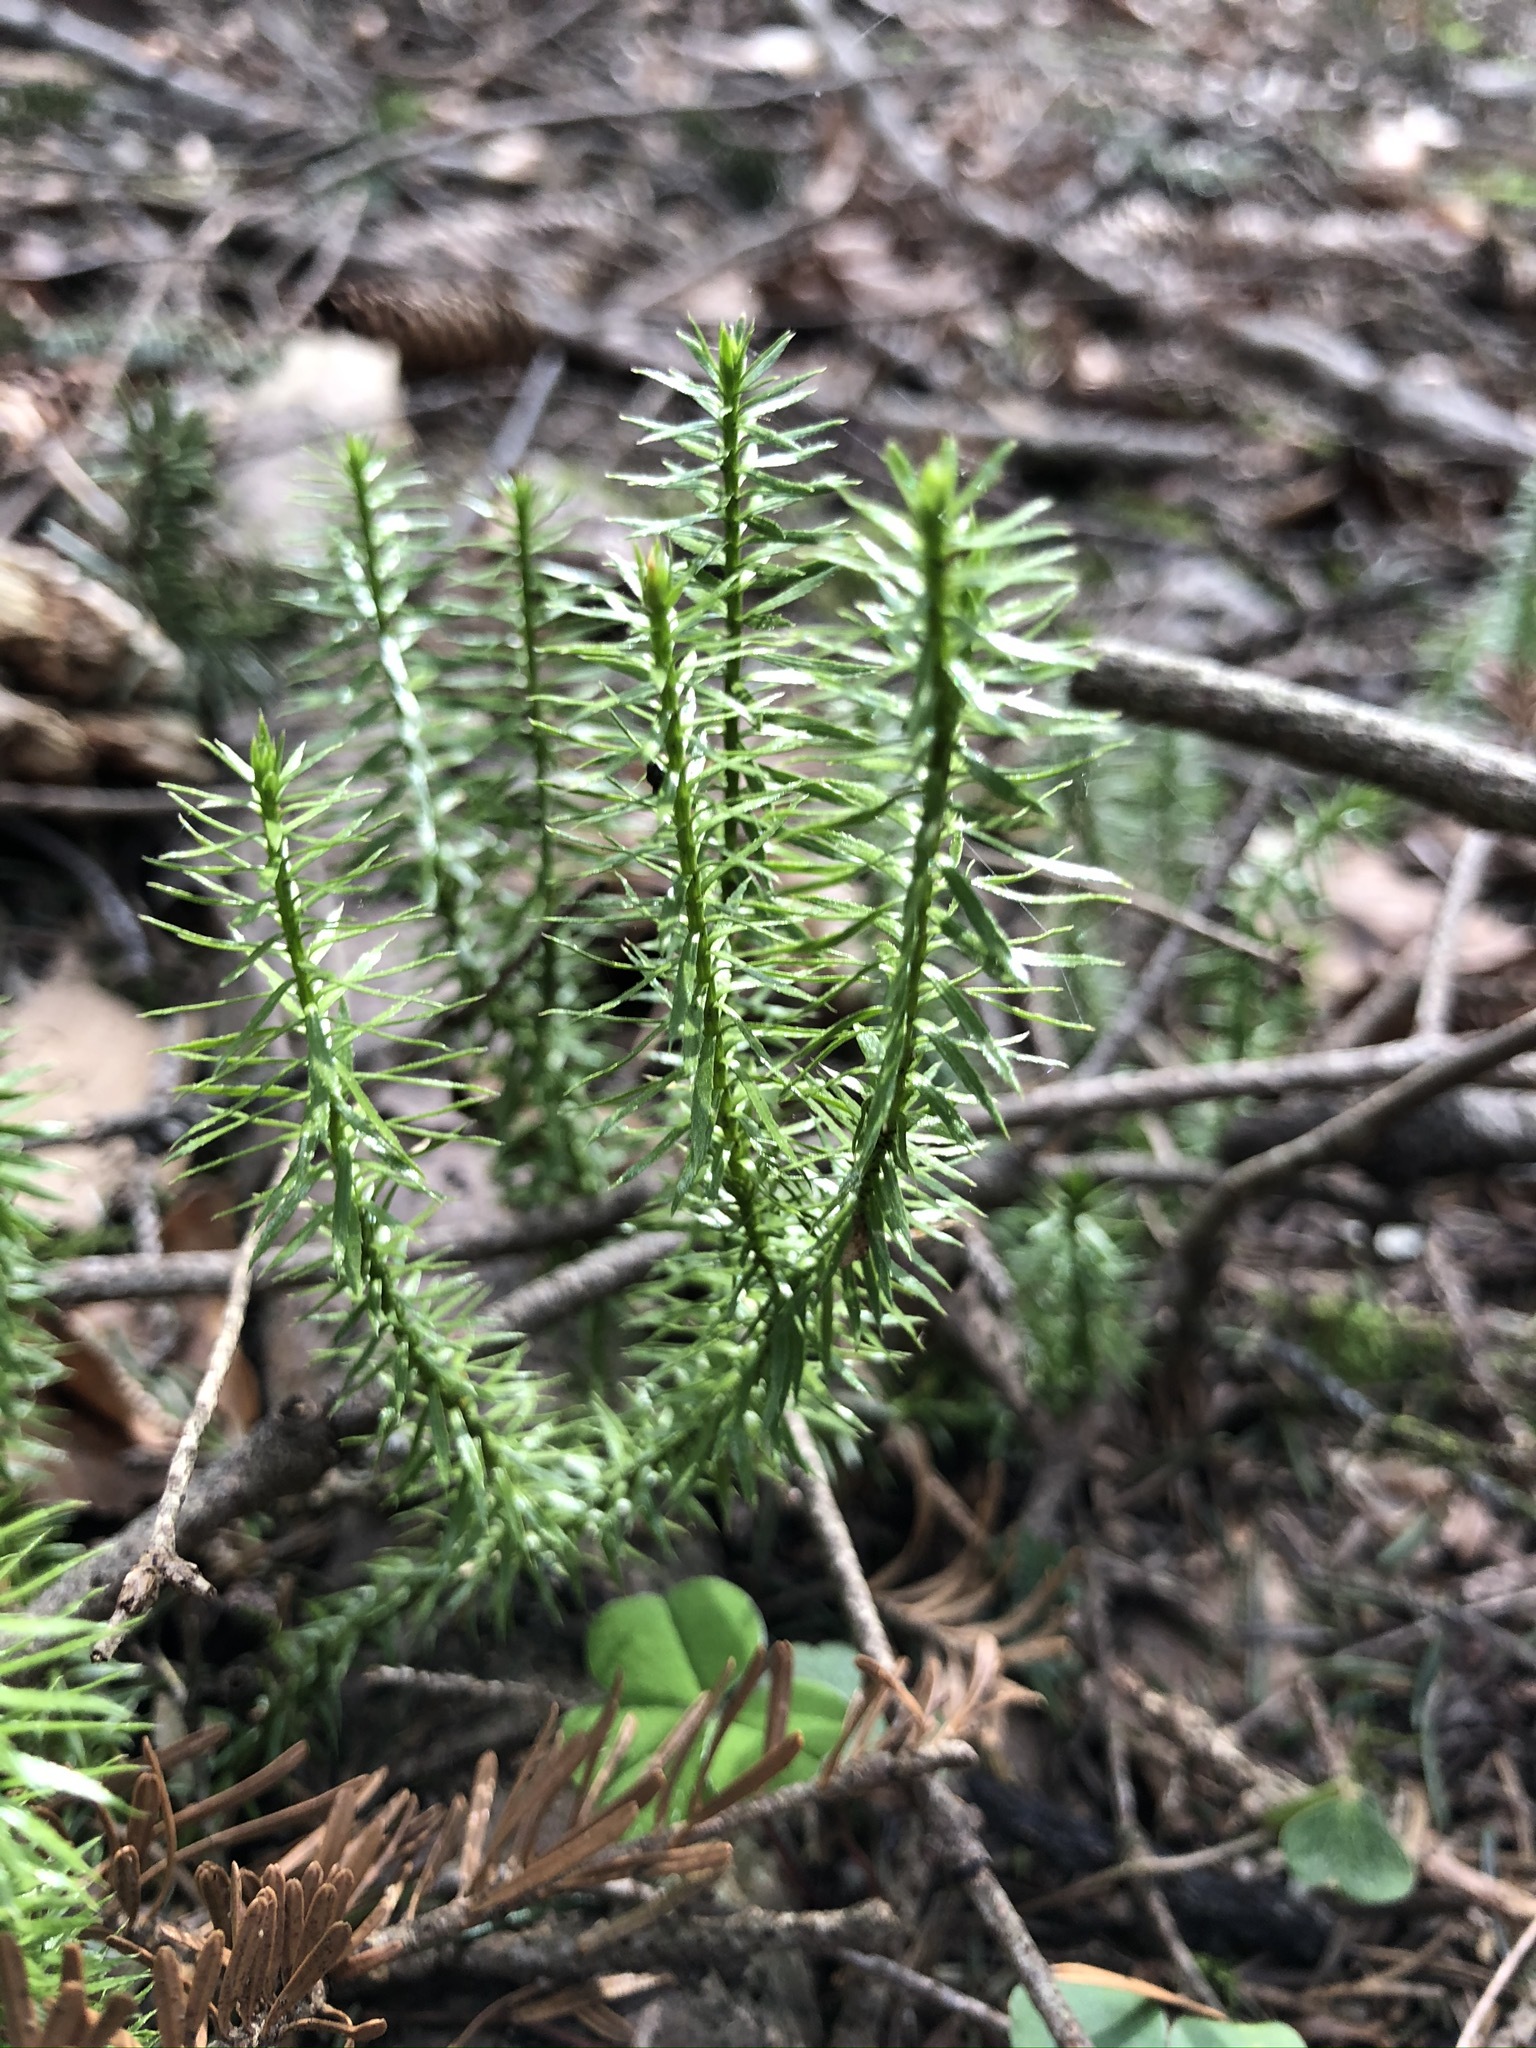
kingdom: Plantae
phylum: Tracheophyta
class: Lycopodiopsida
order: Lycopodiales
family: Lycopodiaceae
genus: Spinulum
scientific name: Spinulum annotinum
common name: Interrupted club-moss
